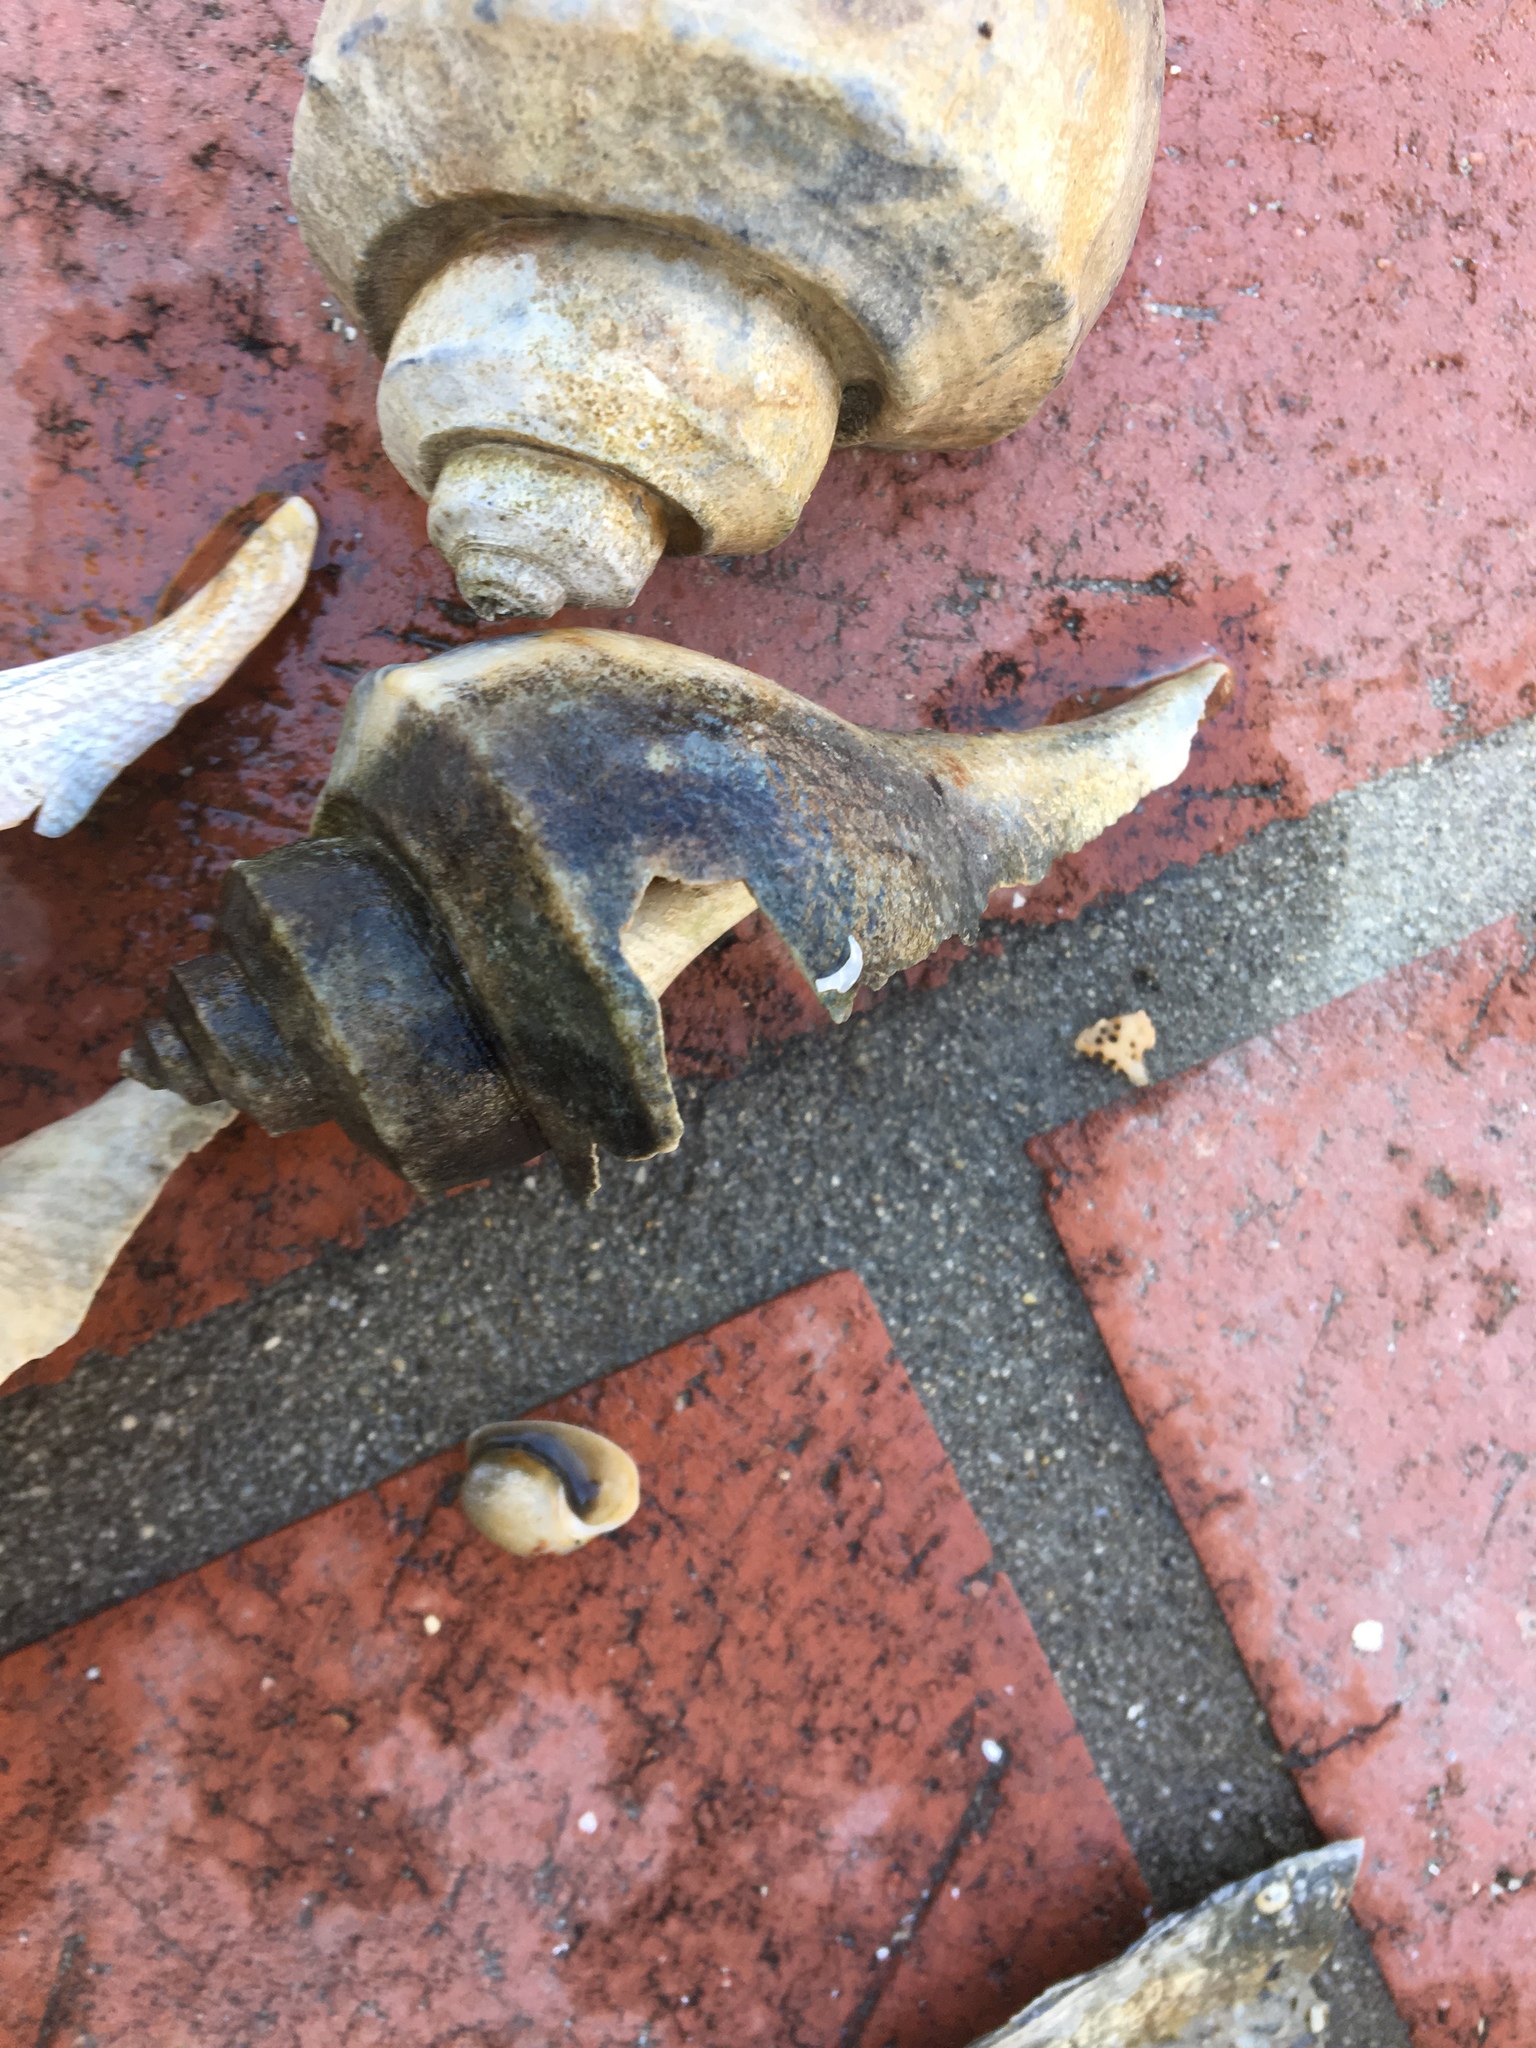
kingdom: Animalia
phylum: Mollusca
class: Gastropoda
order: Neogastropoda
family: Busyconidae
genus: Busycotypus
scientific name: Busycotypus canaliculatus
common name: Channeled whelk
